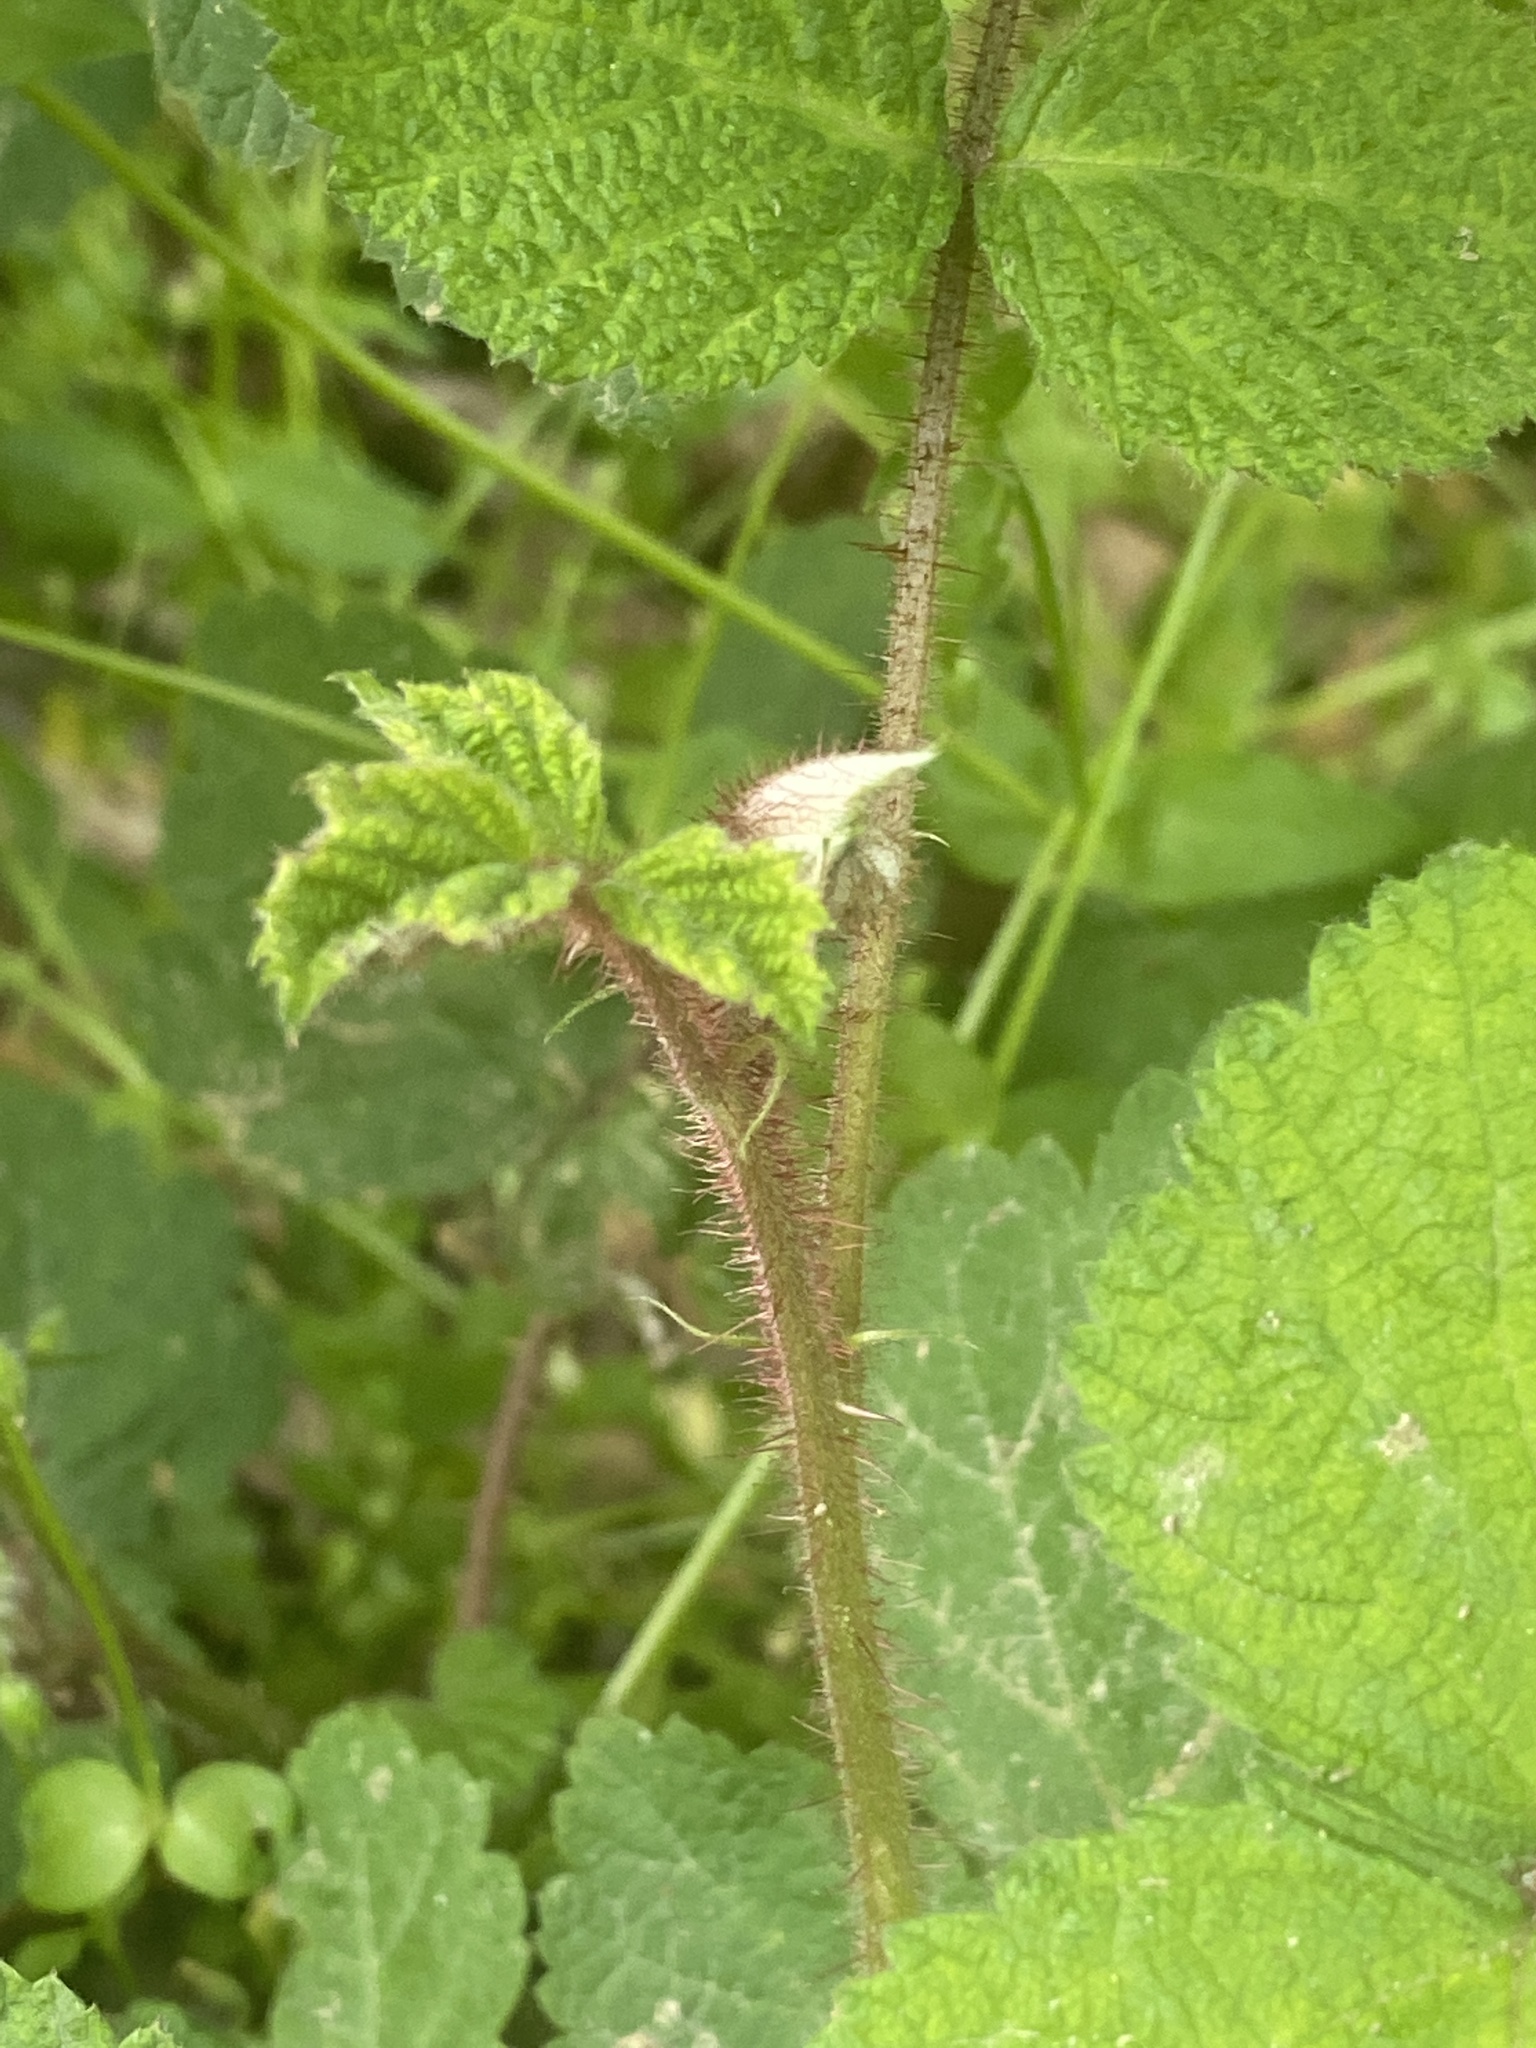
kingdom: Plantae
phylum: Tracheophyta
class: Magnoliopsida
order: Rosales
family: Rosaceae
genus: Rubus
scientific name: Rubus phoenicolasius
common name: Japanese wineberry
